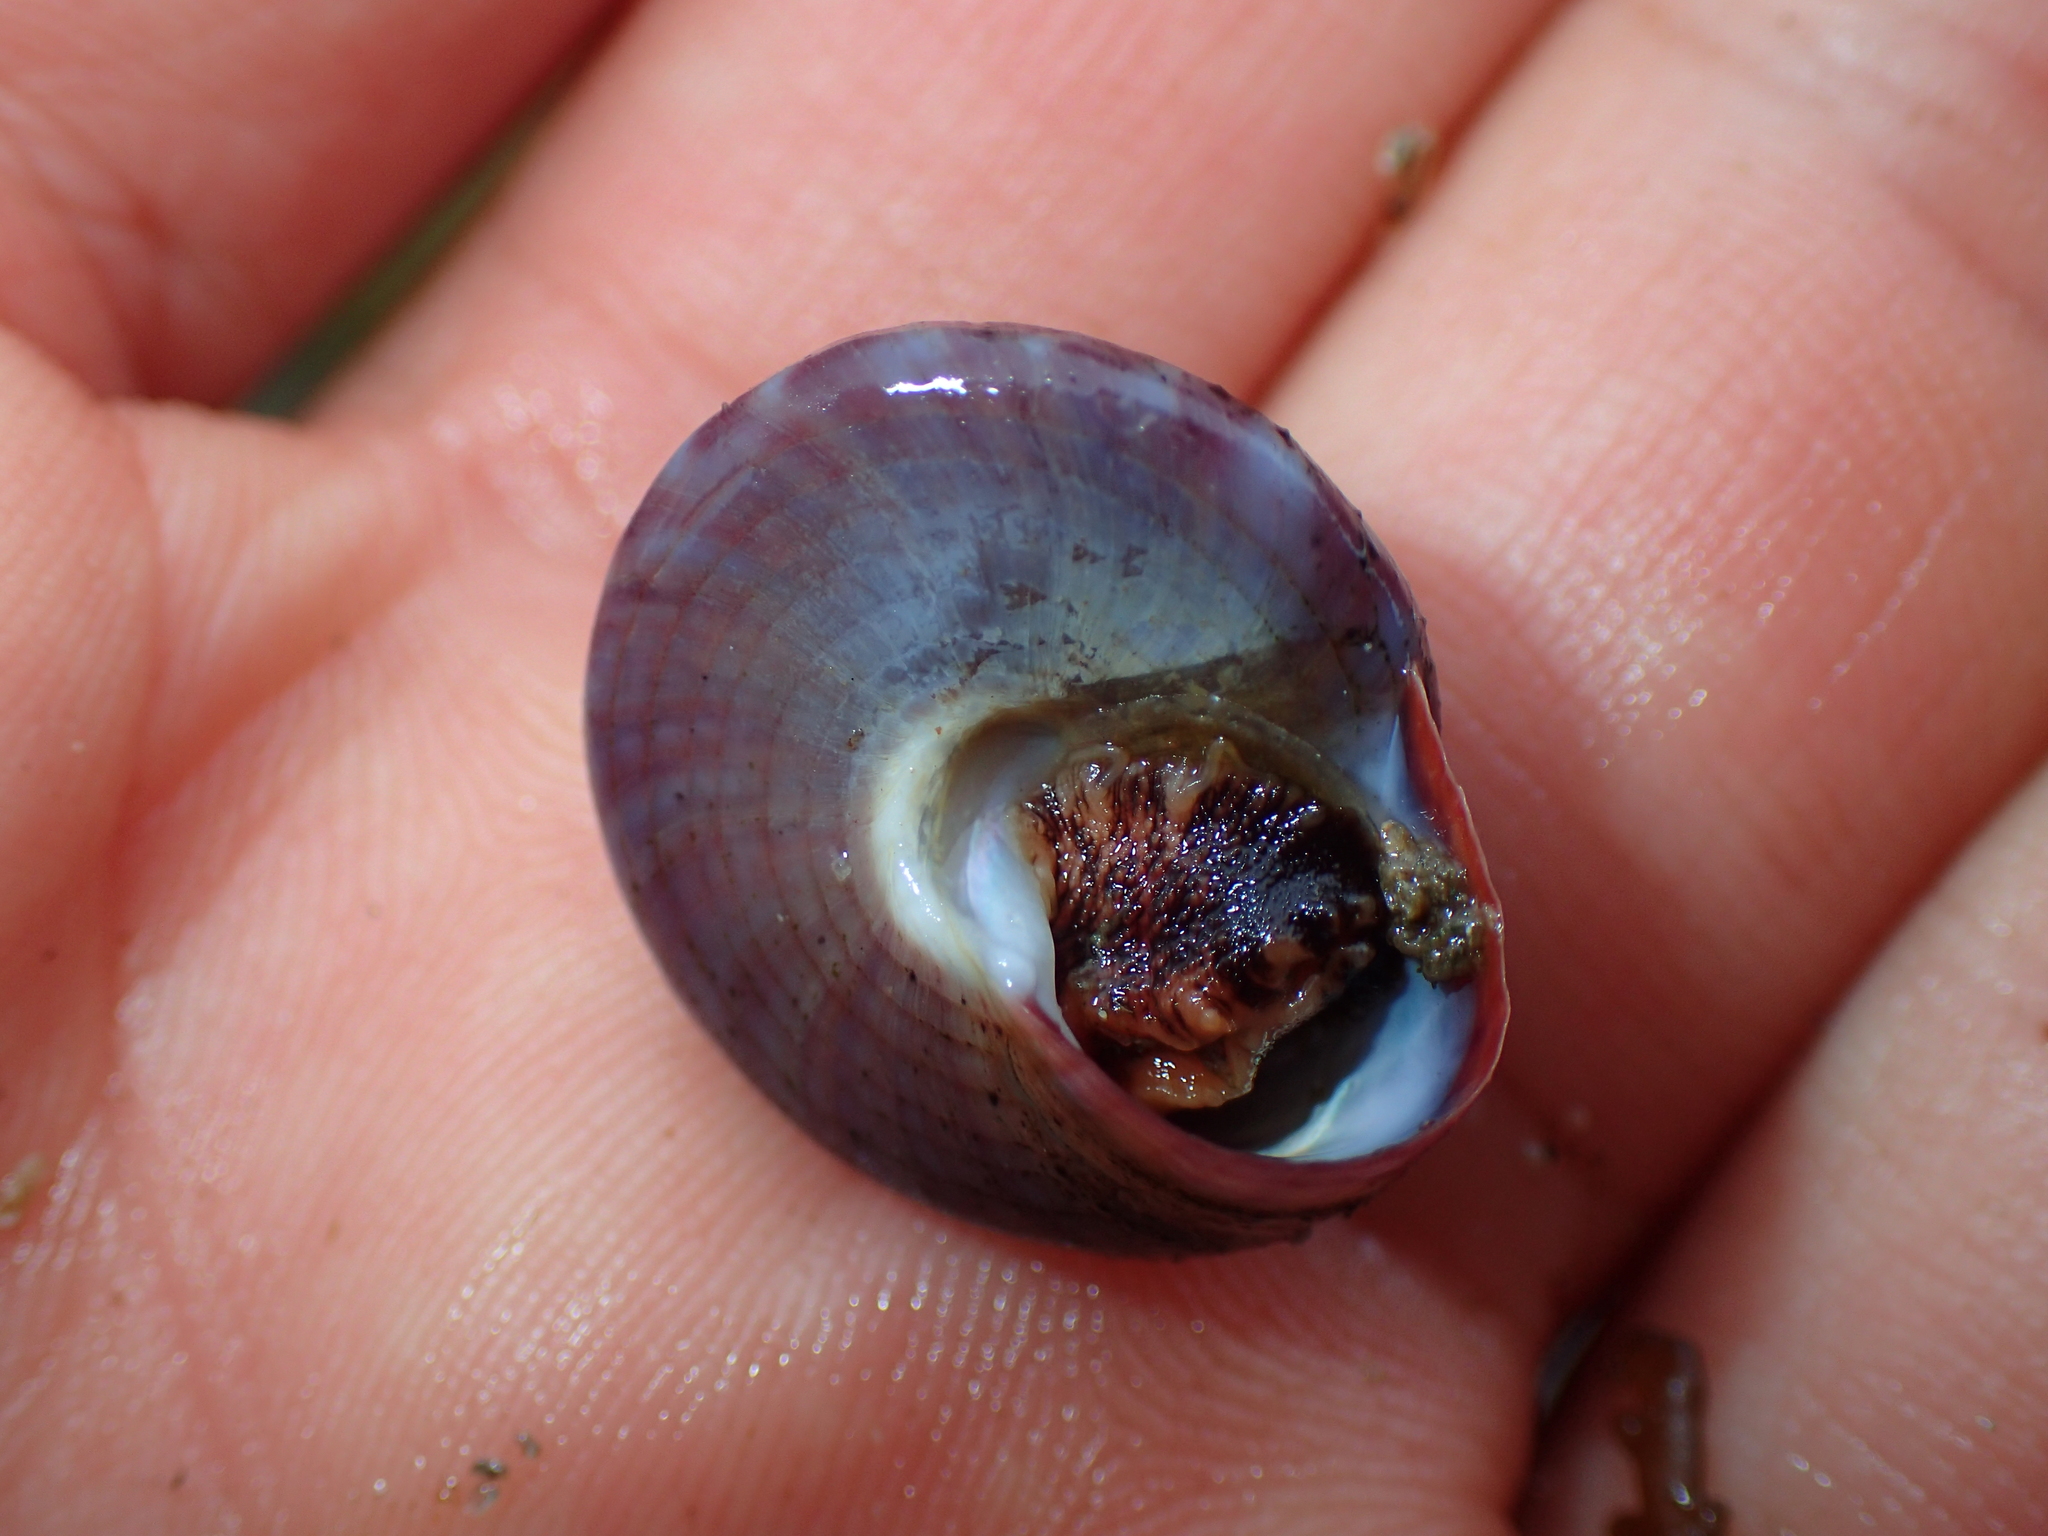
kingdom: Animalia
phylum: Mollusca
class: Gastropoda
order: Trochida
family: Calliostomatidae
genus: Calliostoma
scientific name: Calliostoma zizyphinum
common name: Painted top shell
